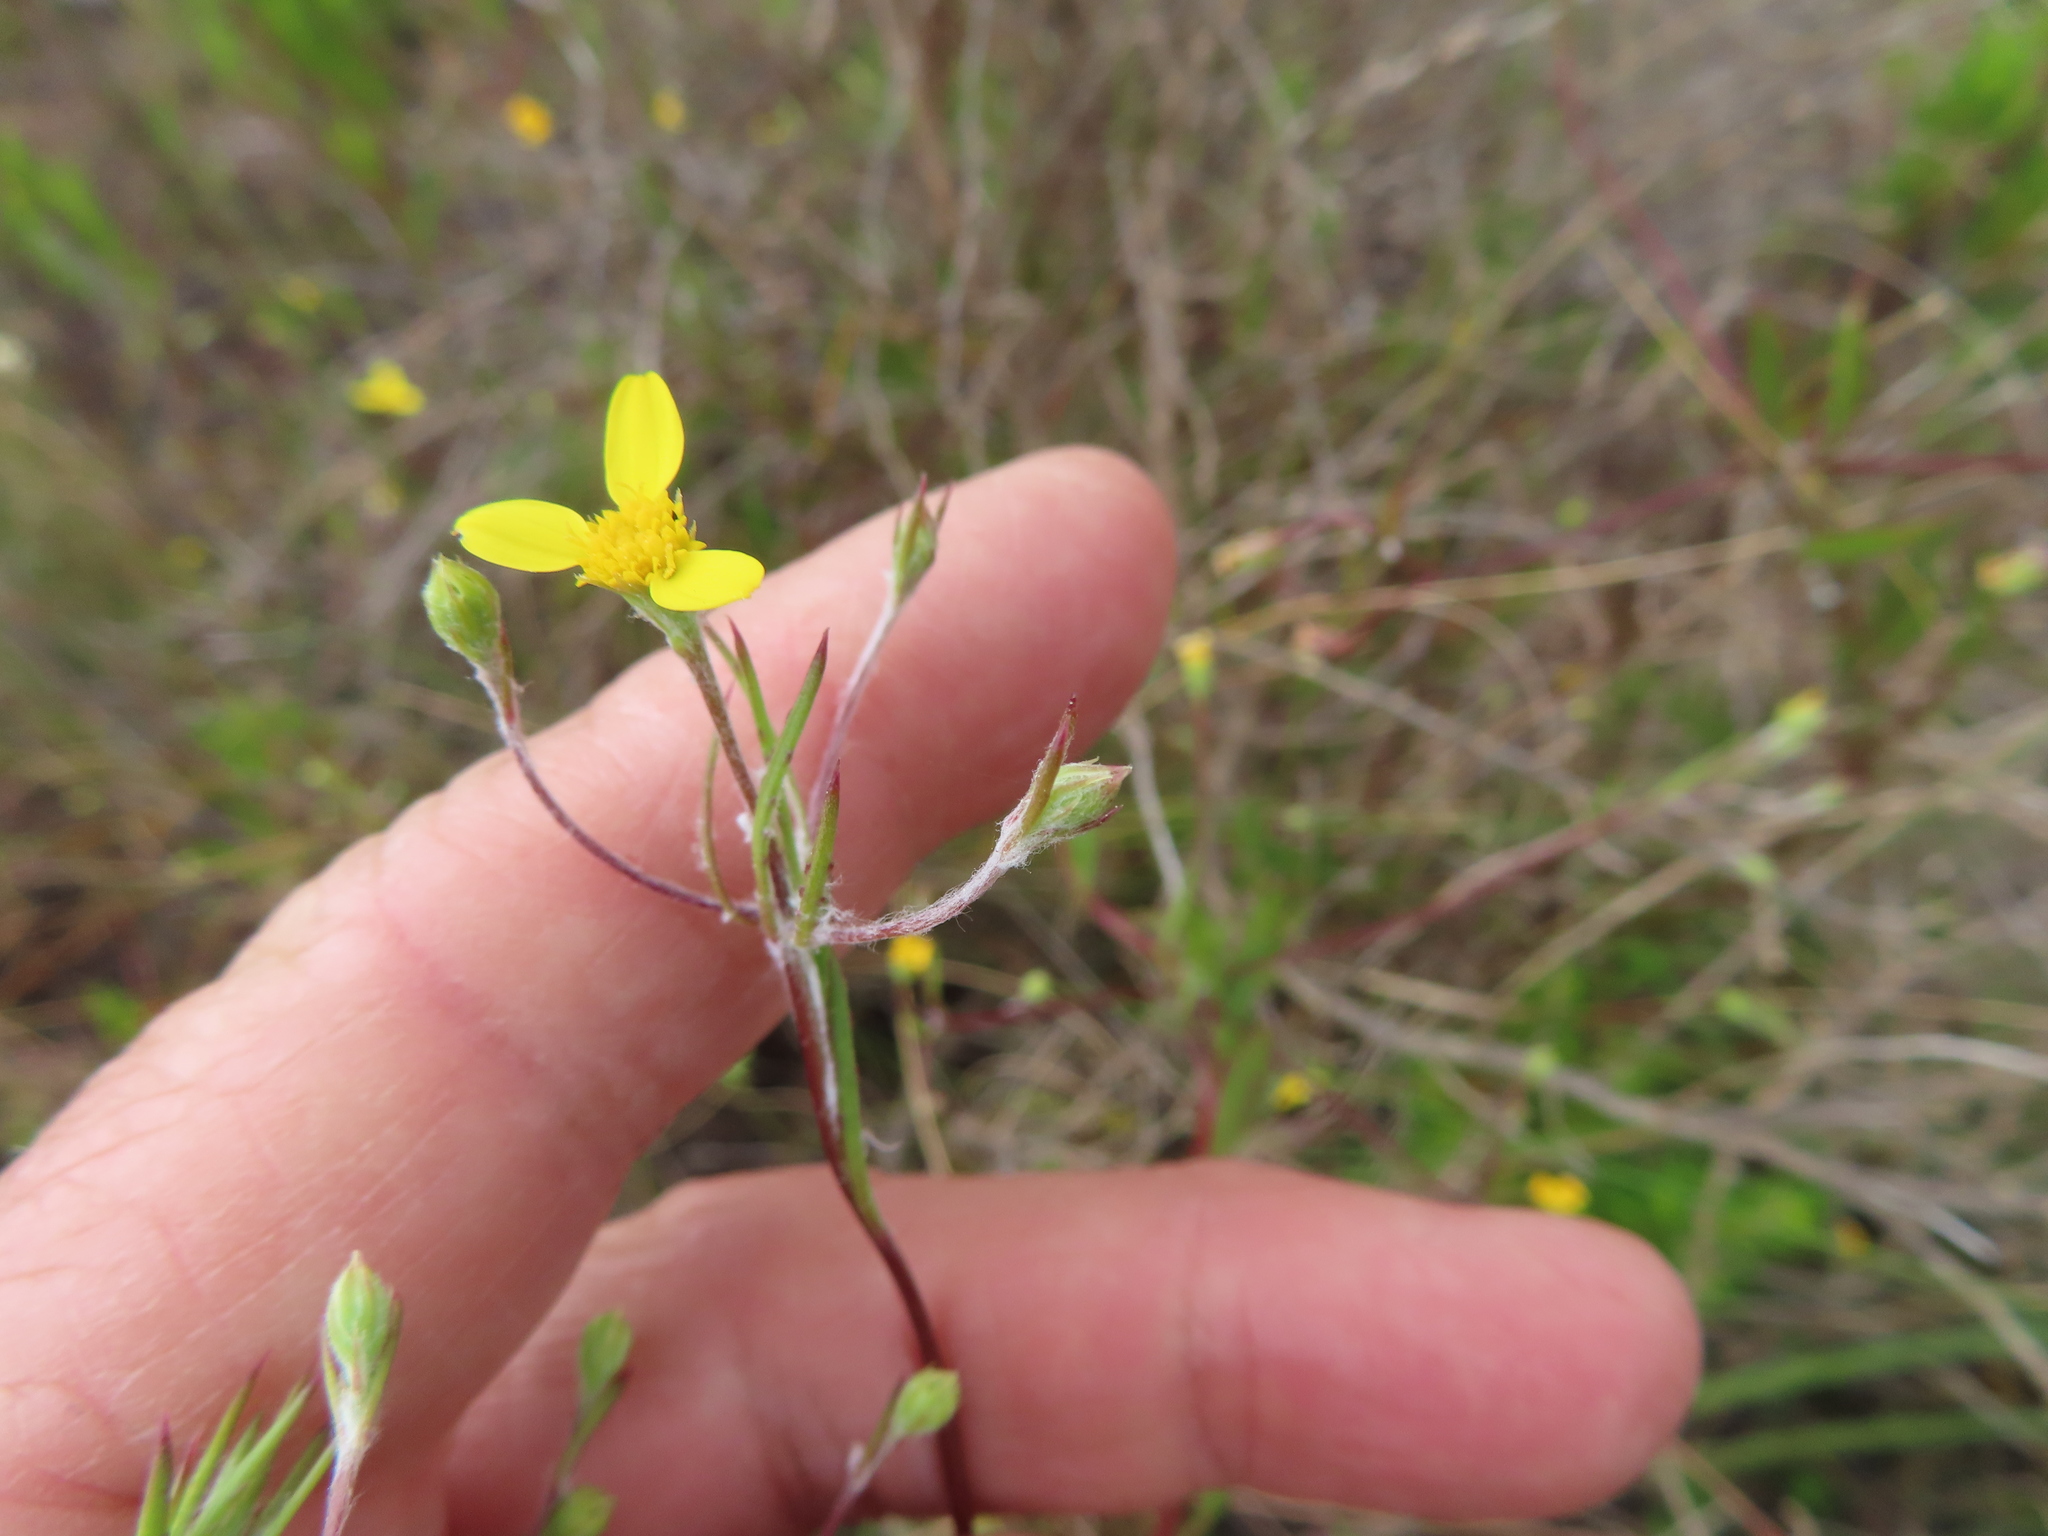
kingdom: Plantae
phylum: Tracheophyta
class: Magnoliopsida
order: Asterales
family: Asteraceae
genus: Senecio
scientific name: Senecio pubigerus
